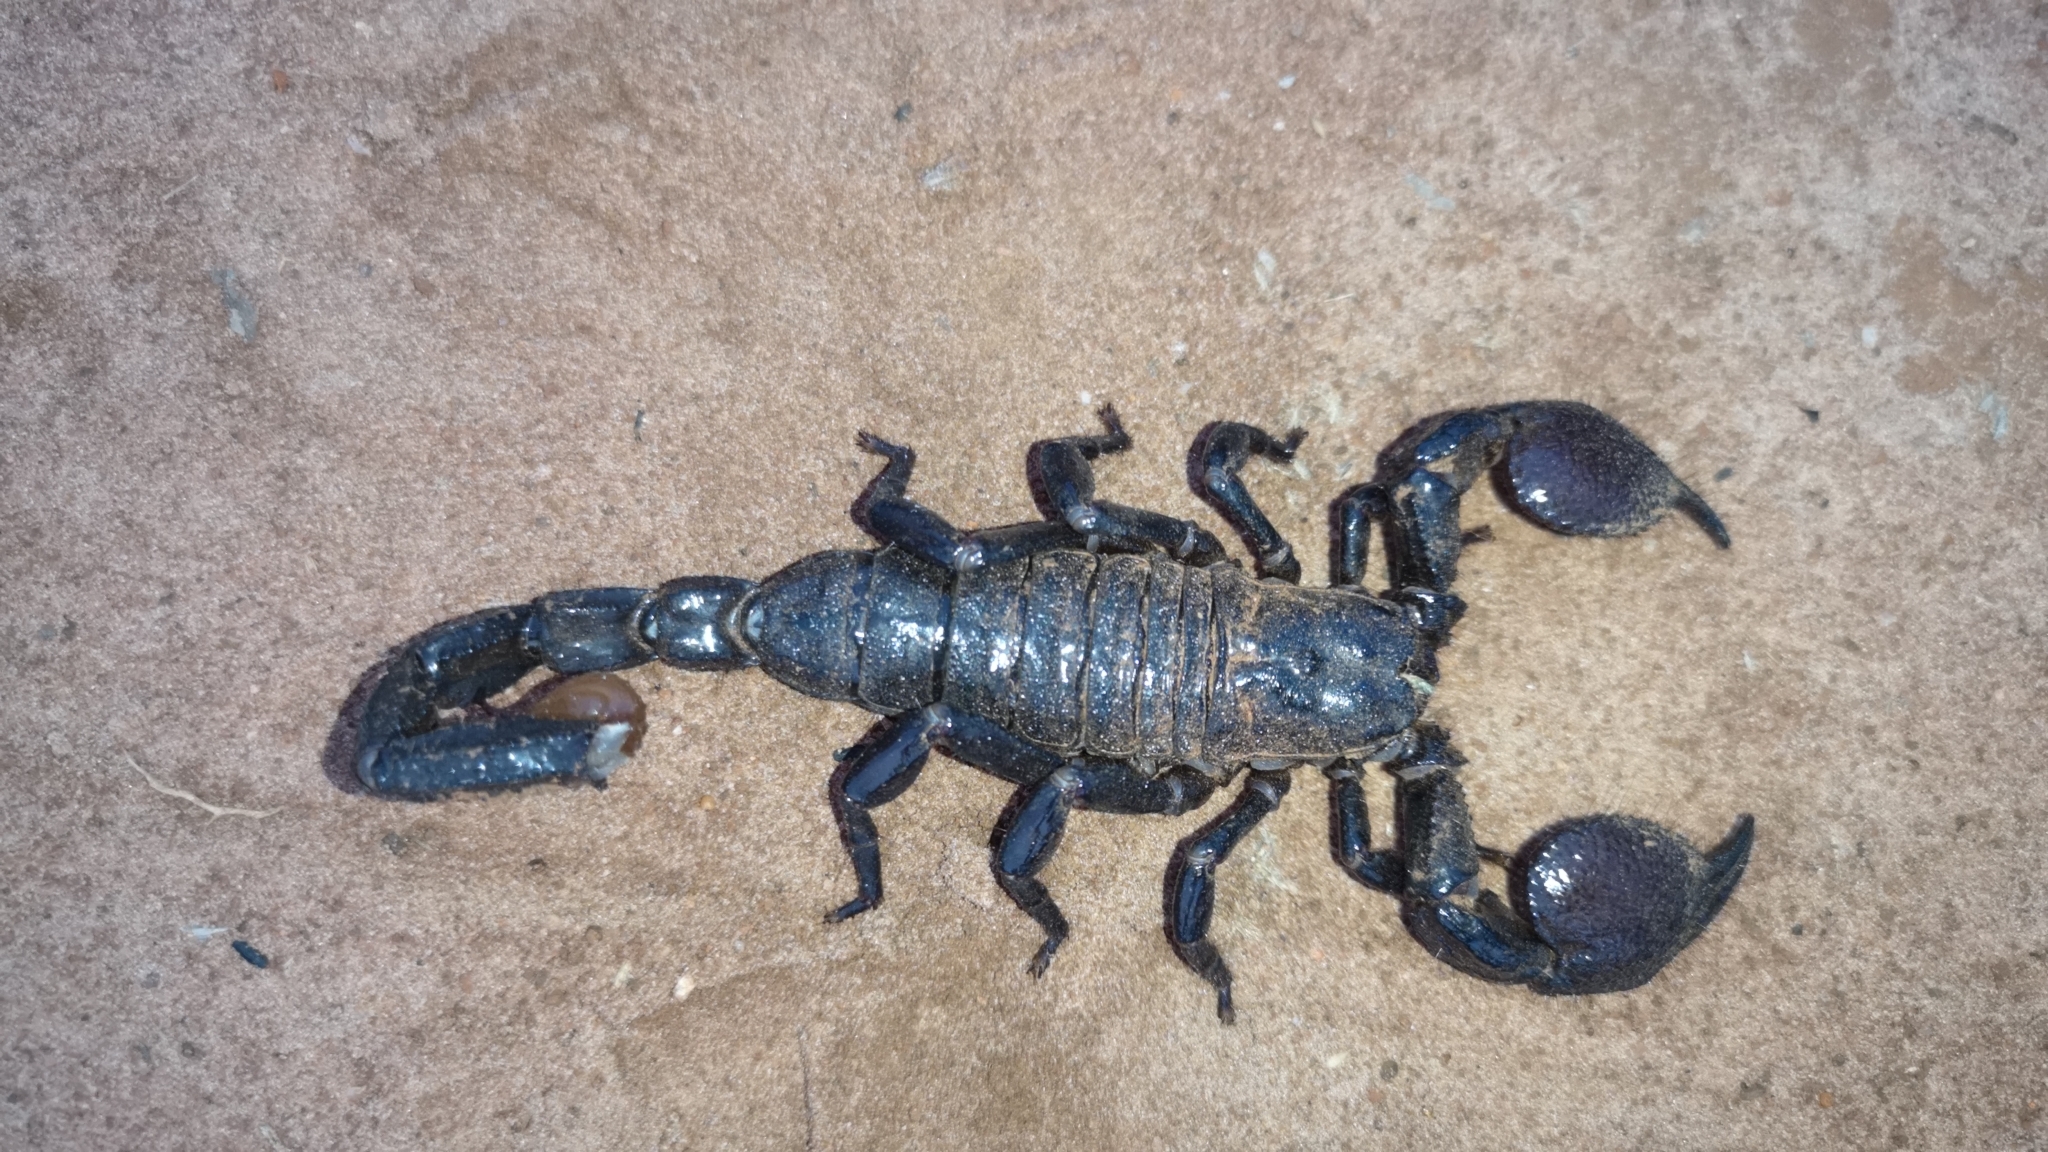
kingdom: Animalia
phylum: Arthropoda
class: Arachnida
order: Scorpiones
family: Scorpionidae
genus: Pandinus
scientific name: Pandinus imperator
